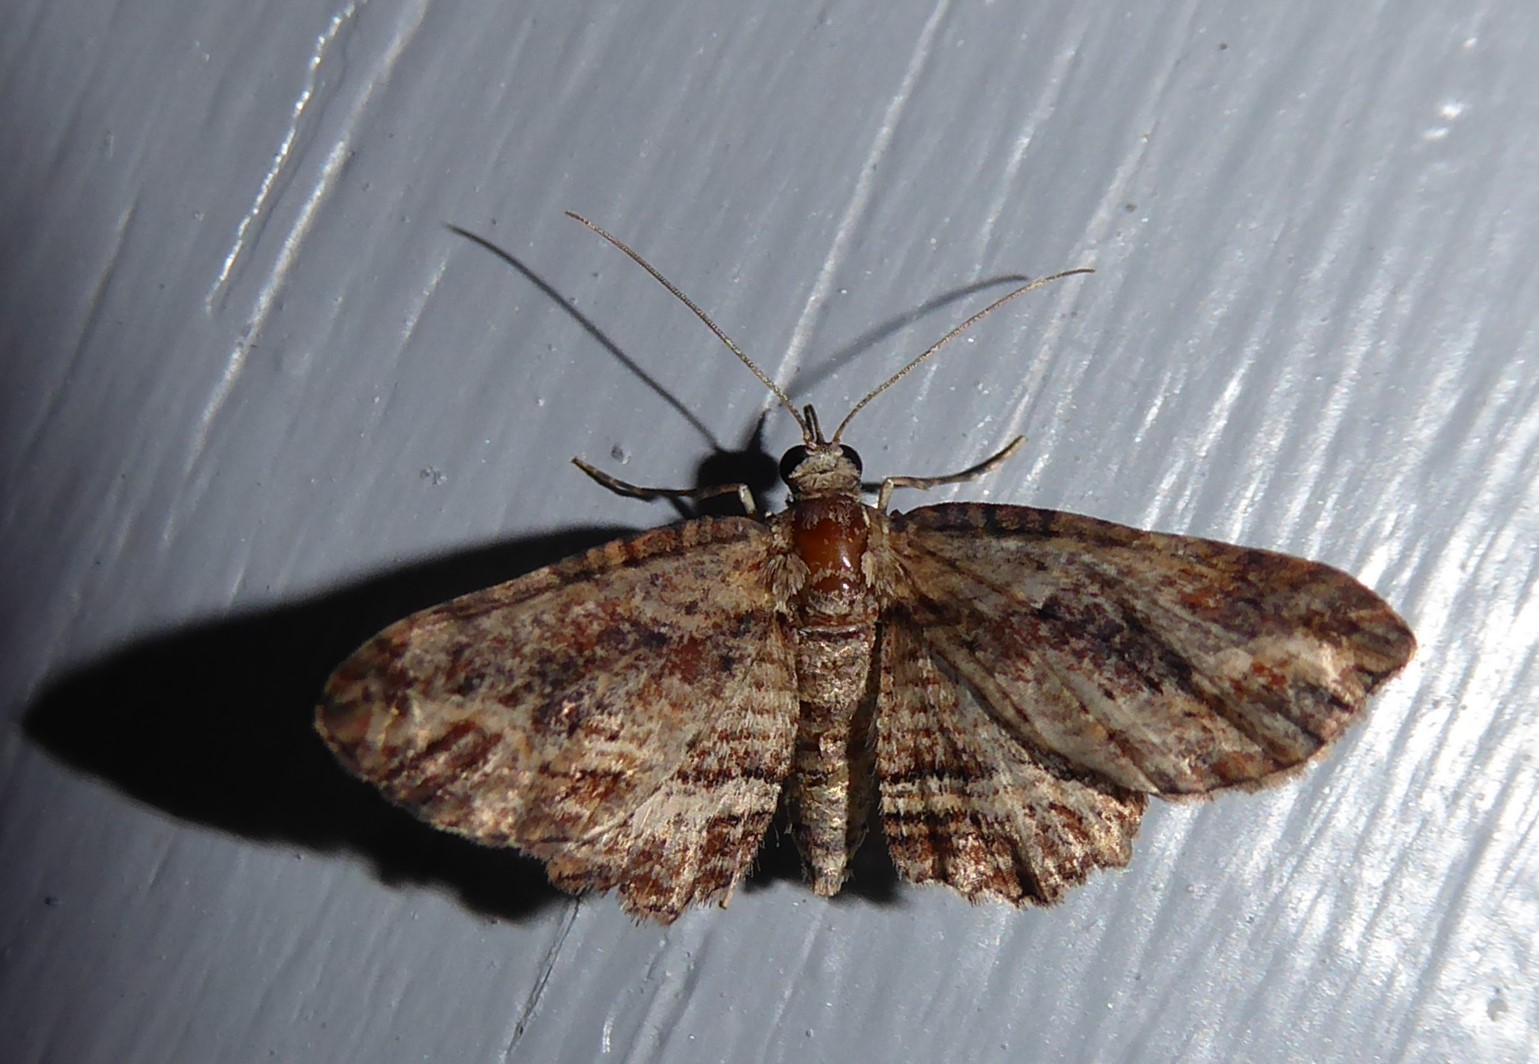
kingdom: Animalia
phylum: Arthropoda
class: Insecta
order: Lepidoptera
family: Geometridae
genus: Chloroclystis
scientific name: Chloroclystis filata
